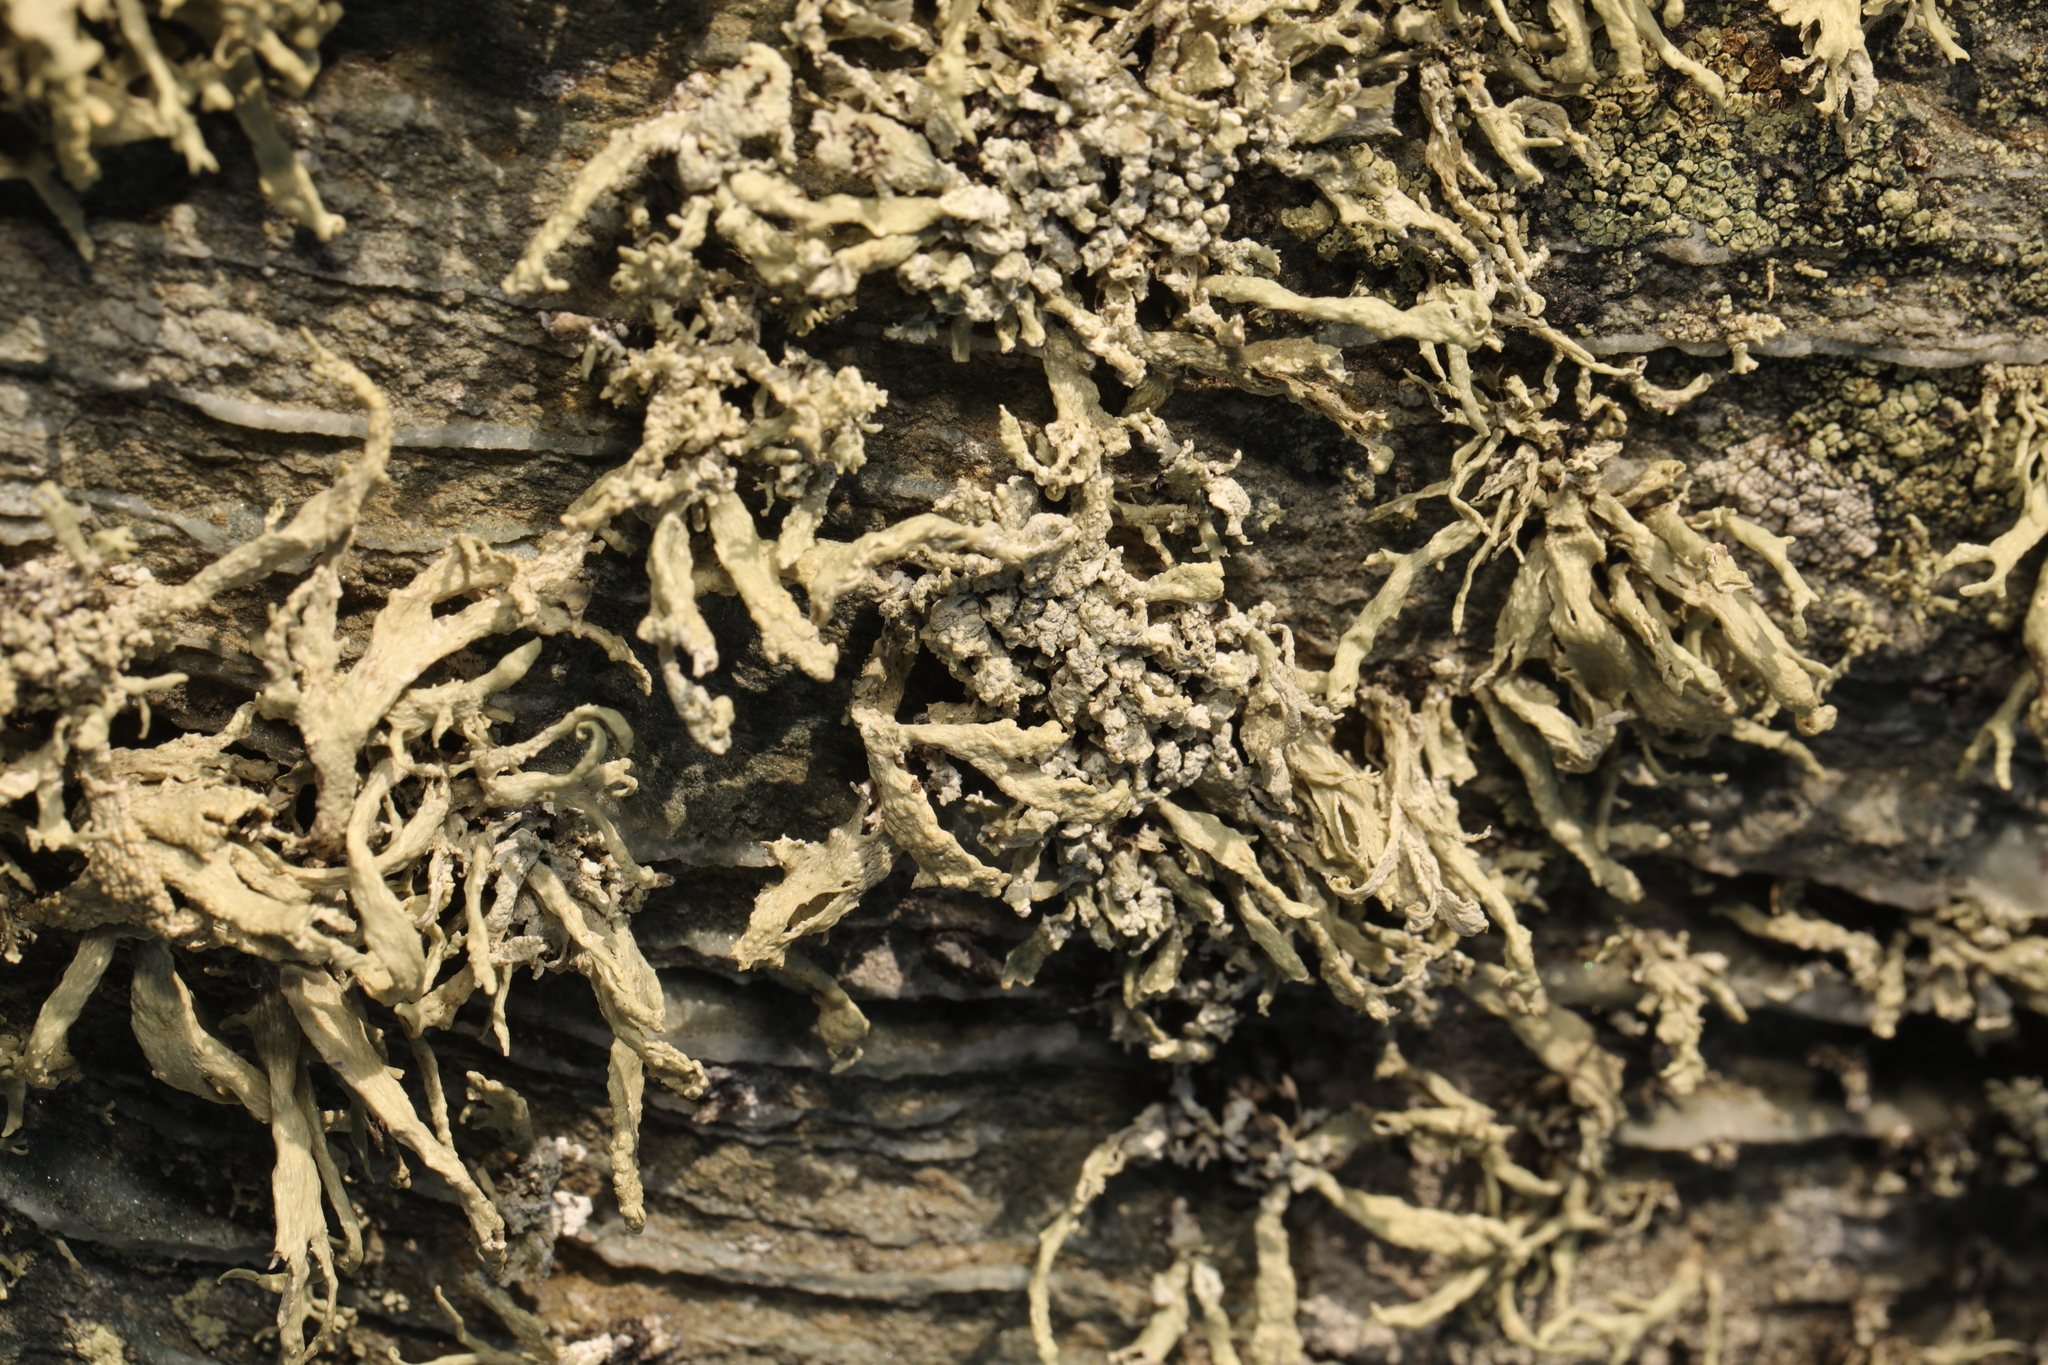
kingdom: Fungi
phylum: Ascomycota
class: Lecanoromycetes
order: Lecanorales
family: Ramalinaceae
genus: Ramalina
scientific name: Ramalina siliquosa
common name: Sea ivory
